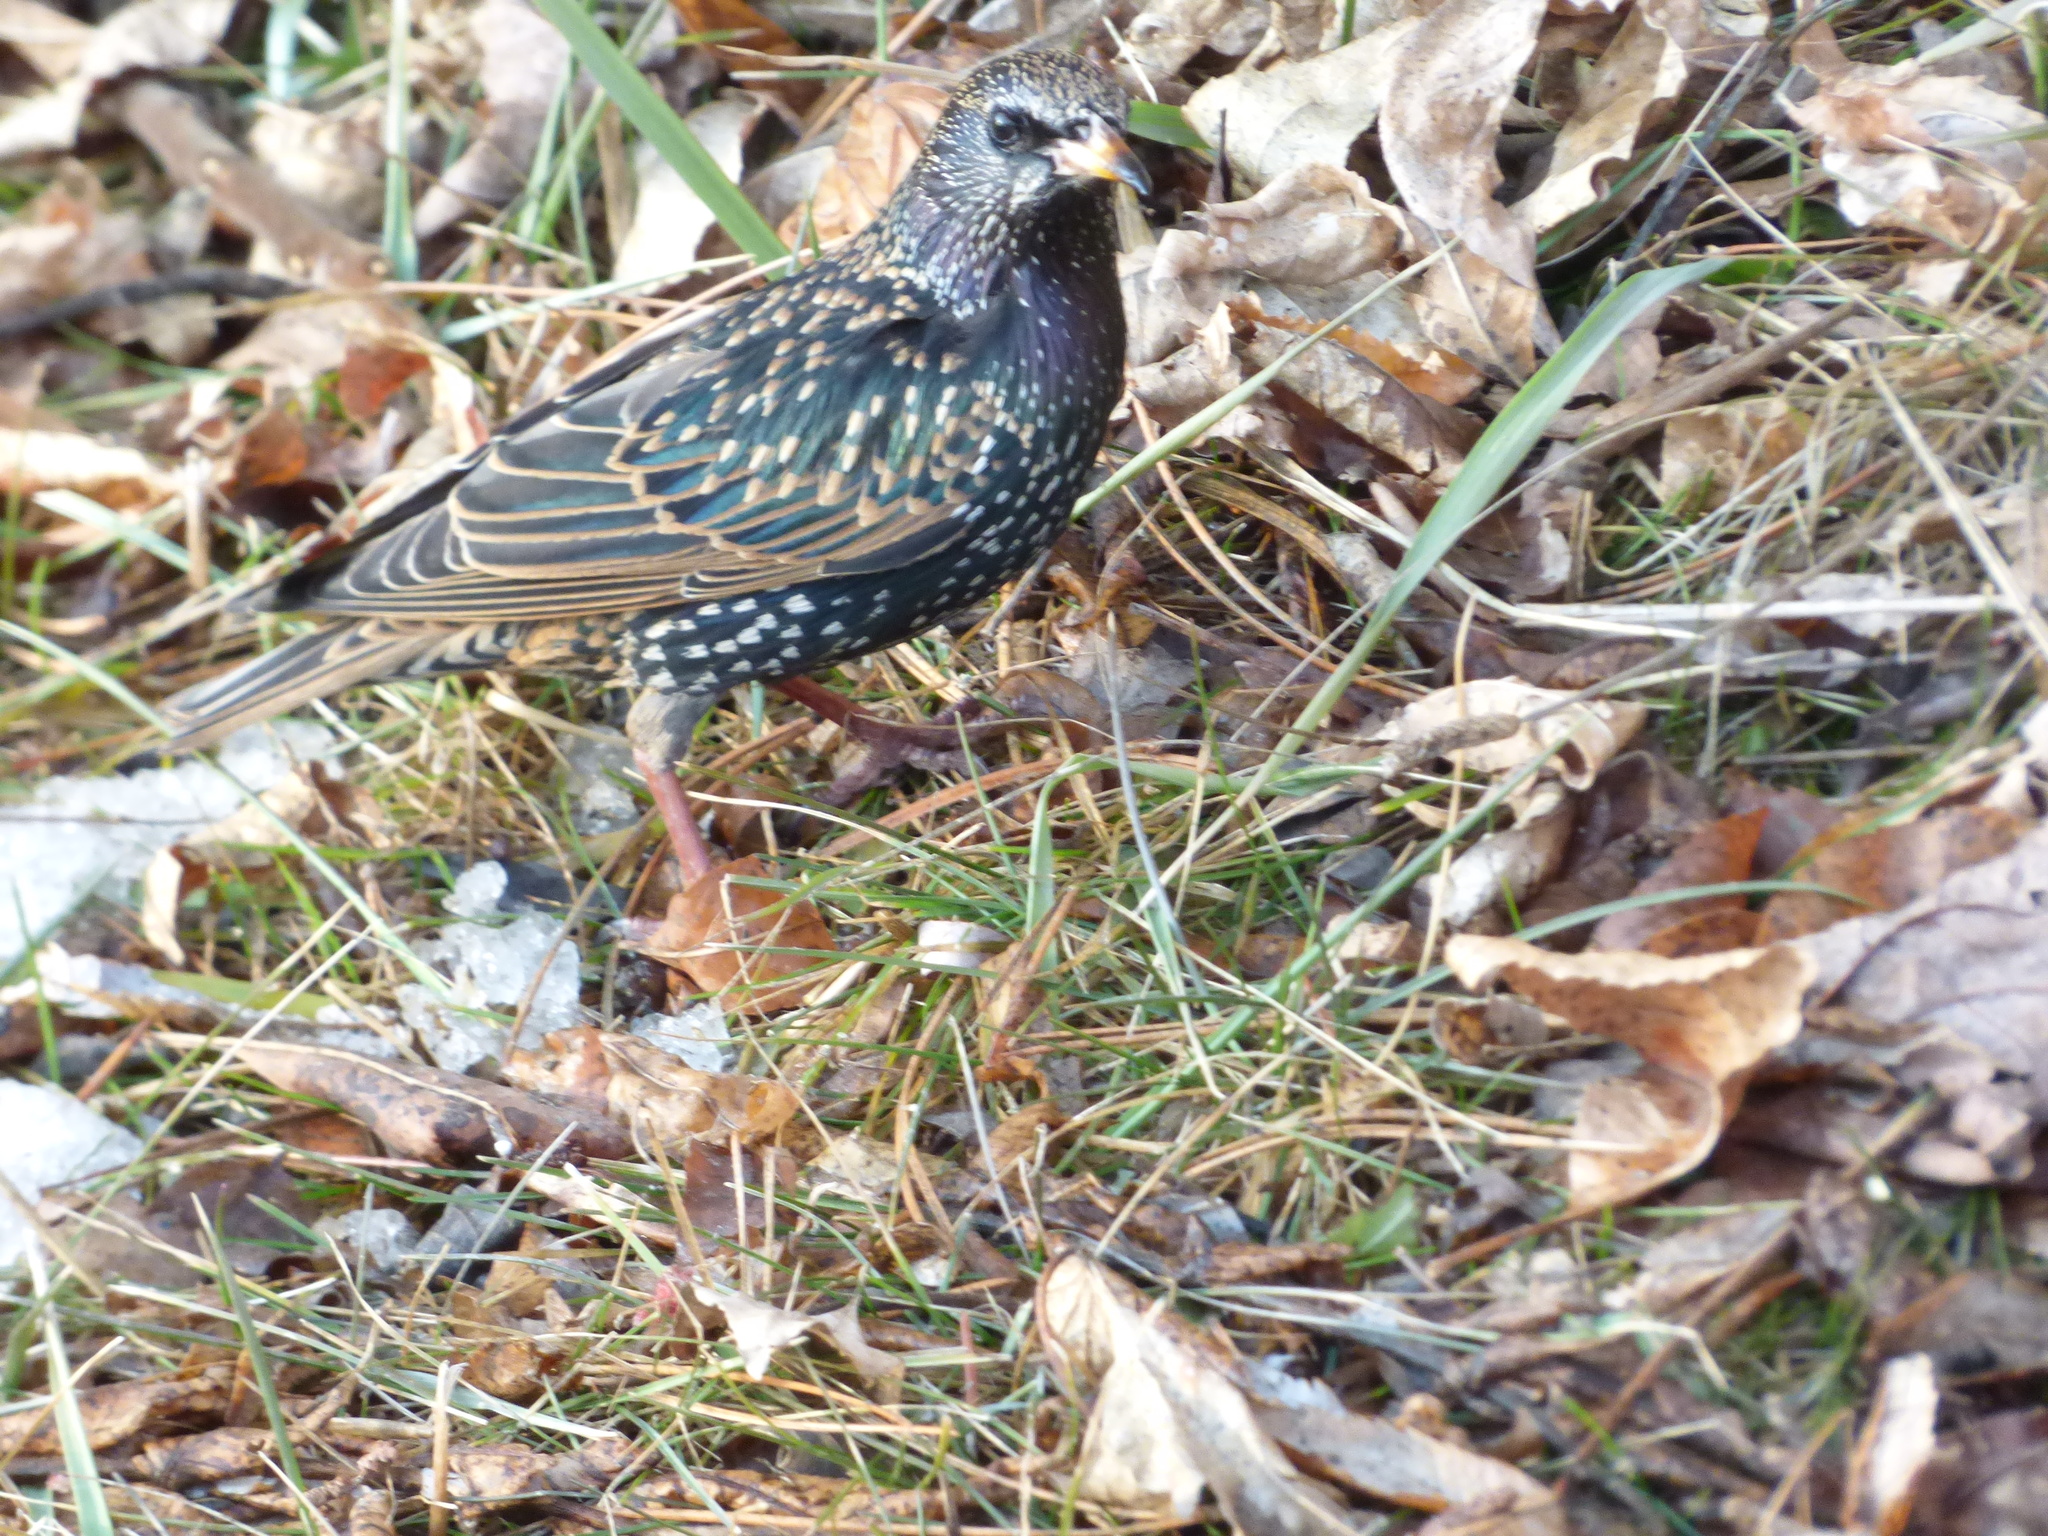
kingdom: Animalia
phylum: Chordata
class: Aves
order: Passeriformes
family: Sturnidae
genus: Sturnus
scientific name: Sturnus vulgaris
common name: Common starling
